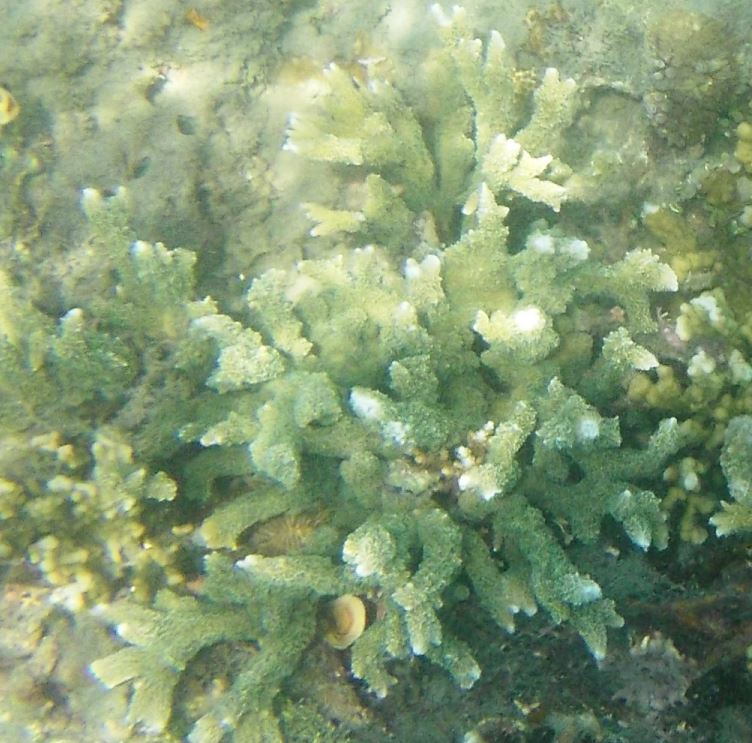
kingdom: Animalia
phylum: Cnidaria
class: Anthozoa
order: Scleractinia
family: Acroporidae
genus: Montipora
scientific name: Montipora digitata
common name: Pore coral
